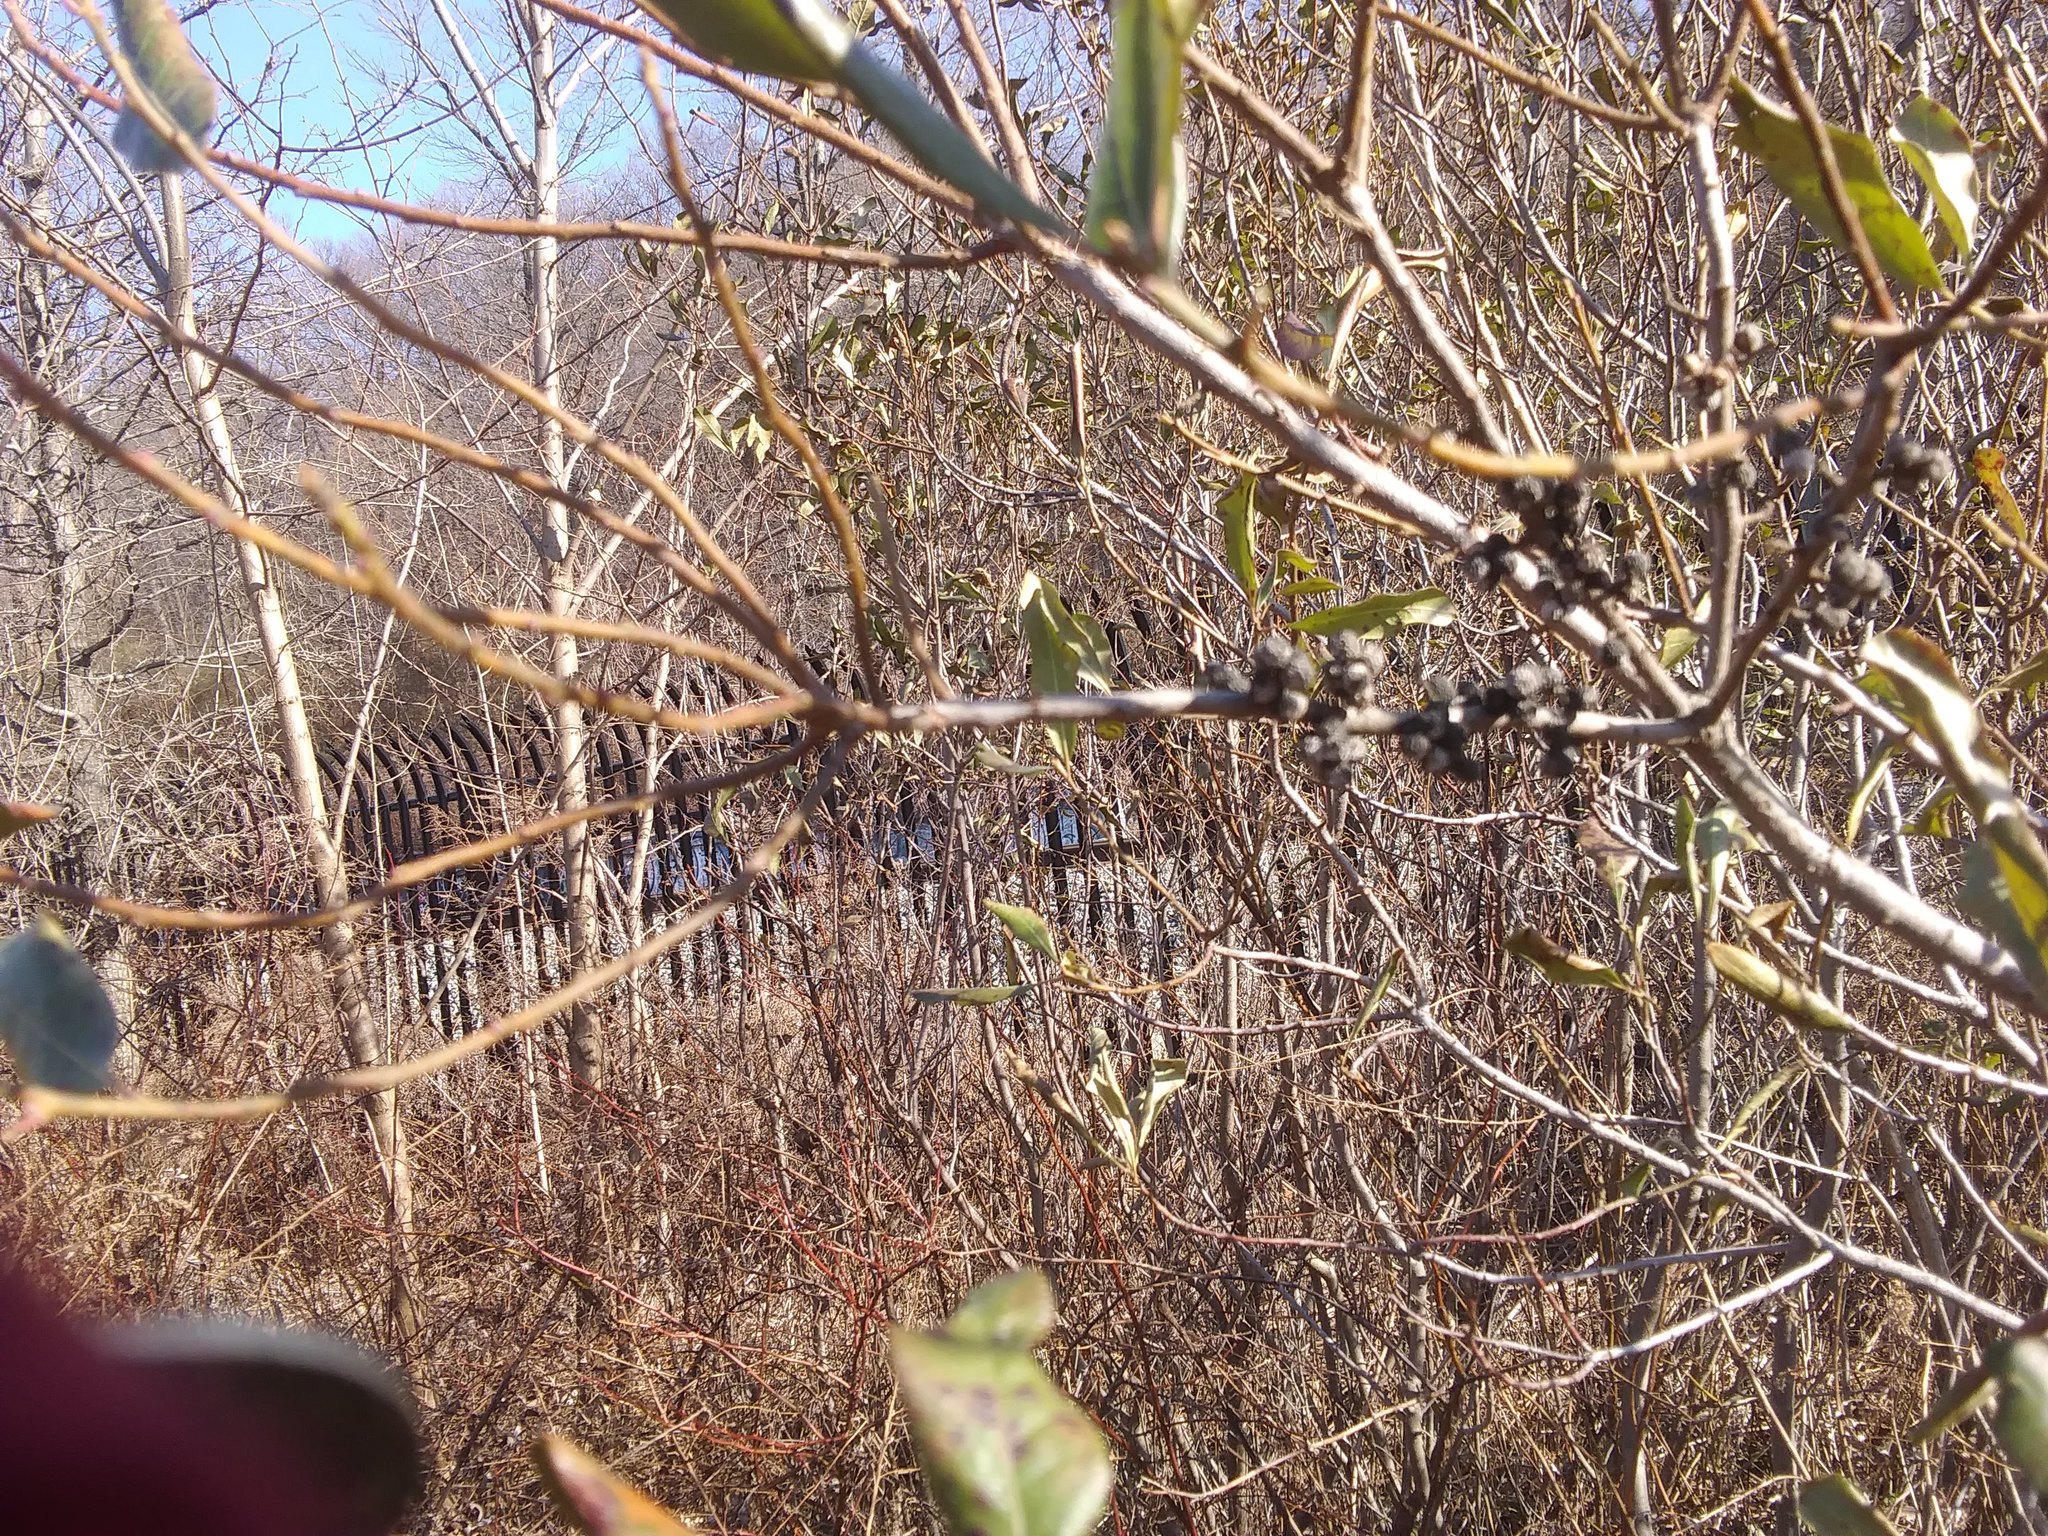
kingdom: Plantae
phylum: Tracheophyta
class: Magnoliopsida
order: Fagales
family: Myricaceae
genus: Morella
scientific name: Morella pensylvanica
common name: Northern bayberry
